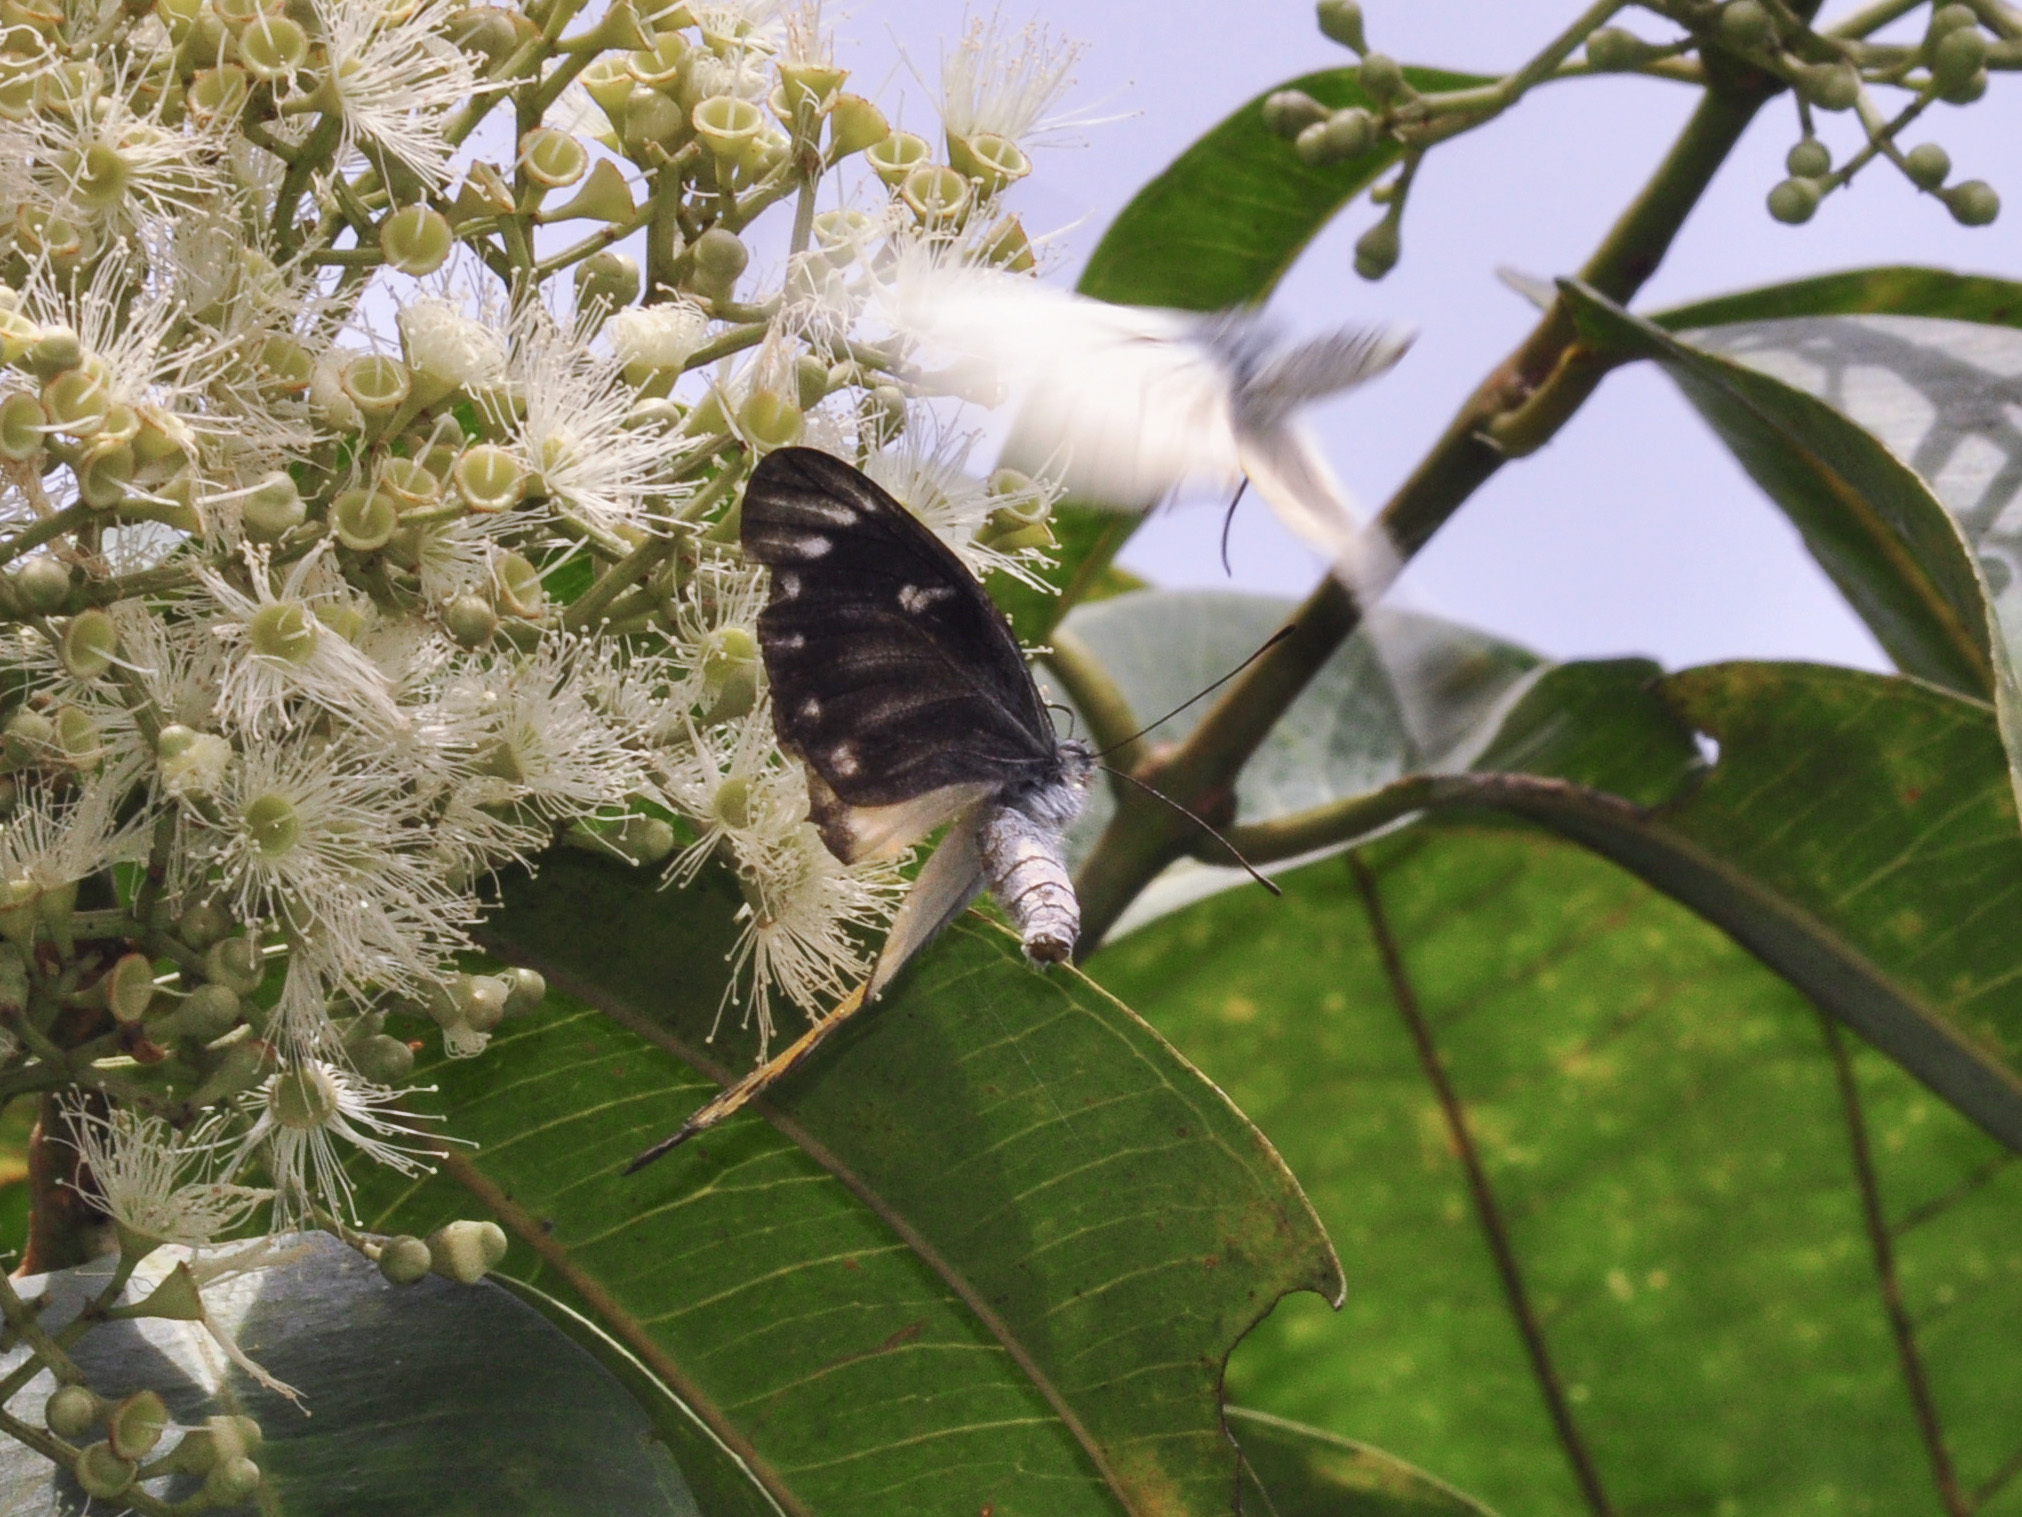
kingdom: Animalia
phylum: Arthropoda
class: Insecta
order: Lepidoptera
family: Pieridae
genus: Delias
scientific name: Delias descombesi
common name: Red-spot jezebel
